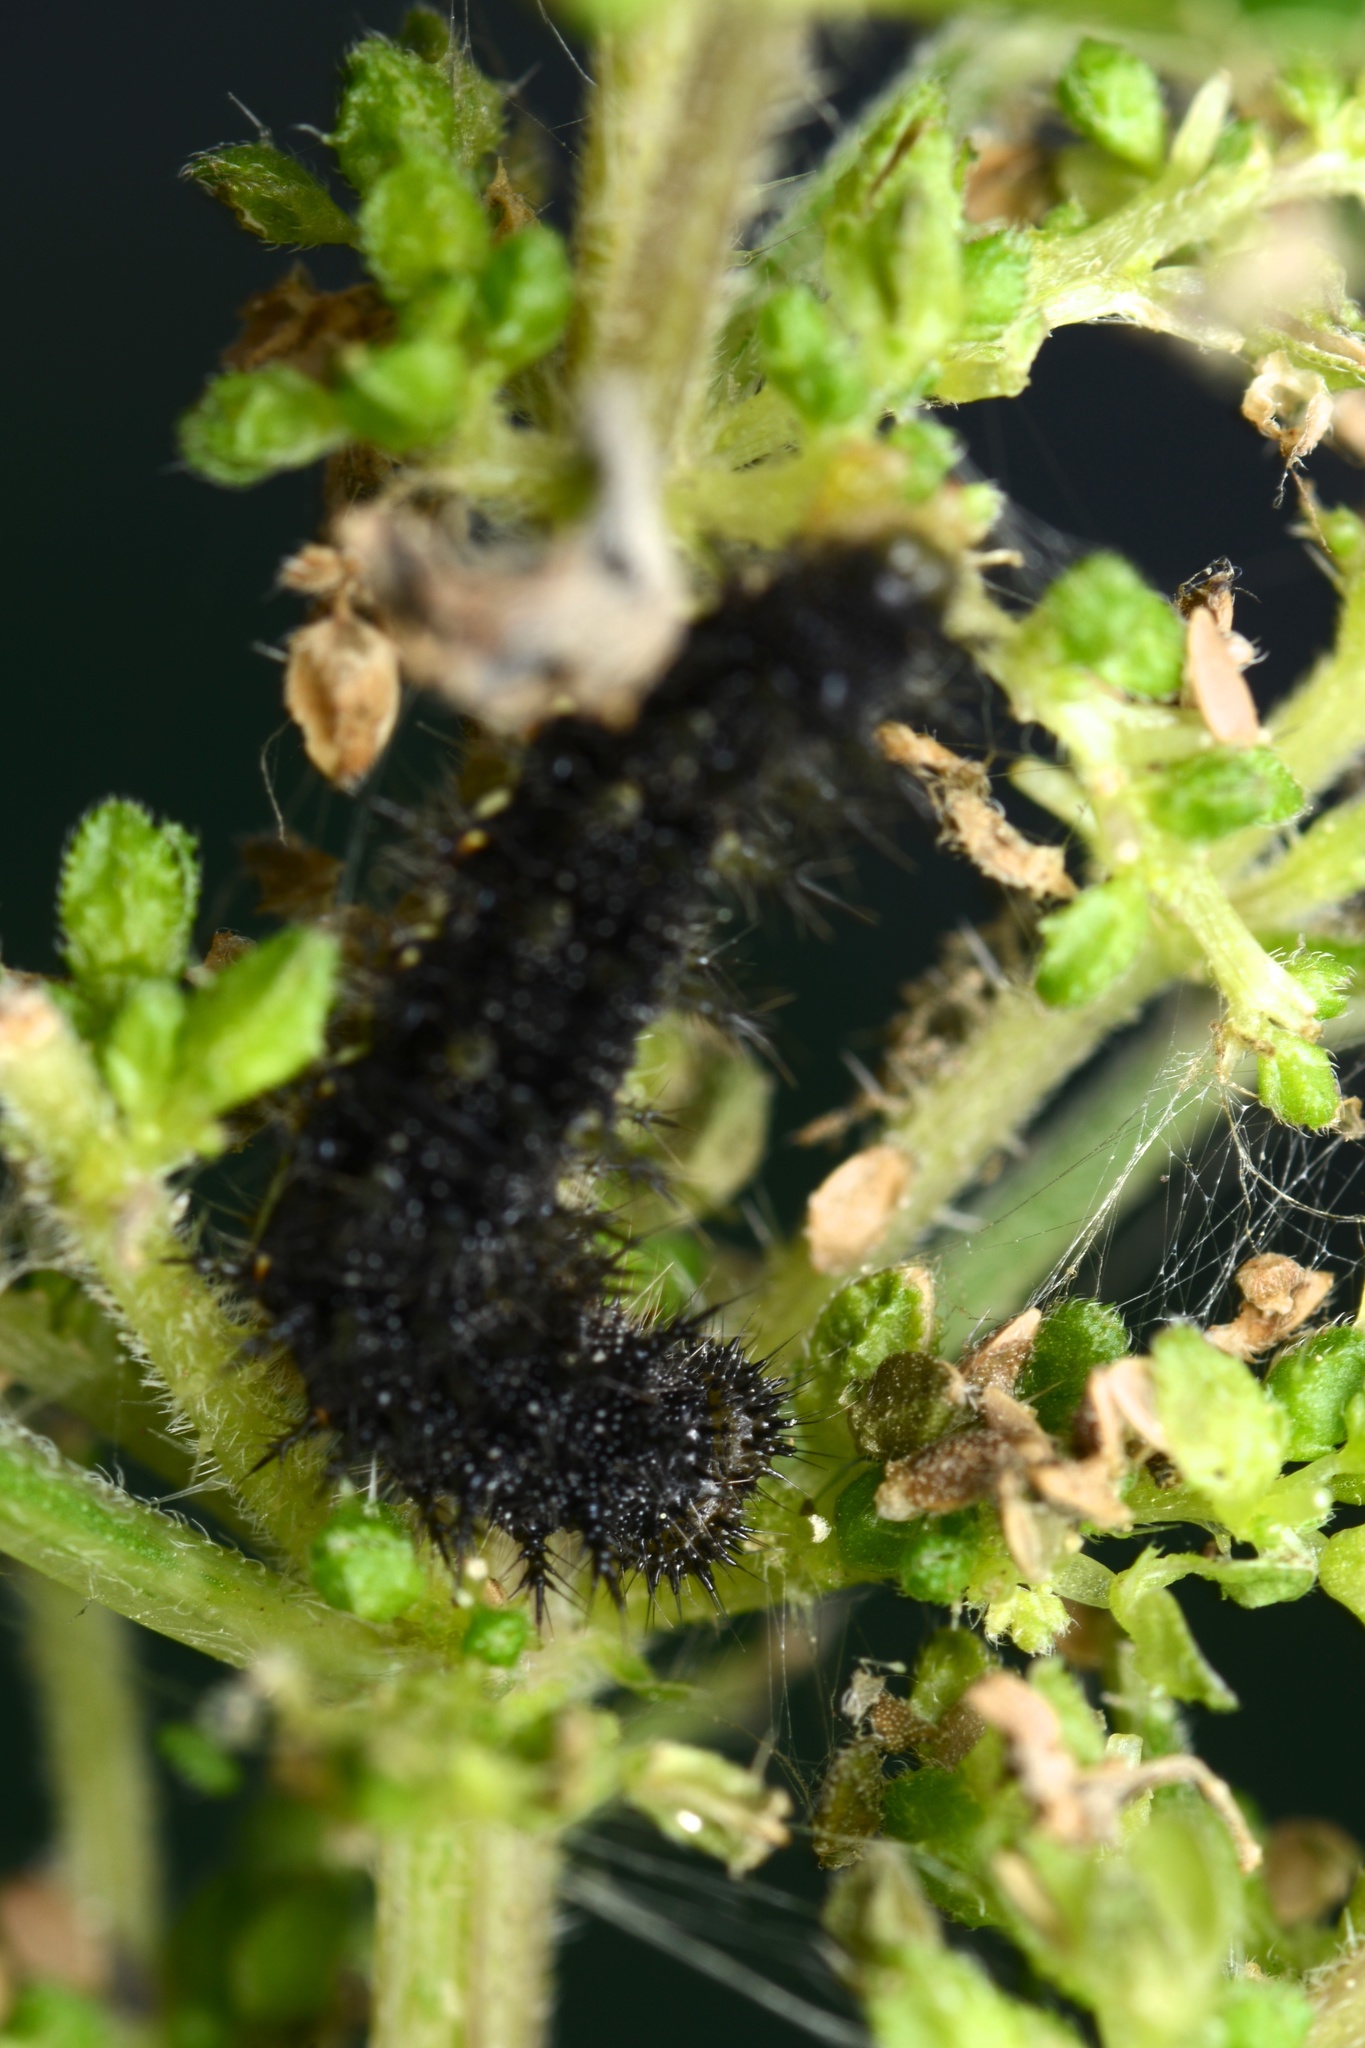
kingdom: Animalia
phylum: Arthropoda
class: Insecta
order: Lepidoptera
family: Nymphalidae
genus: Vanessa
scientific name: Vanessa itea
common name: Yellow admiral
